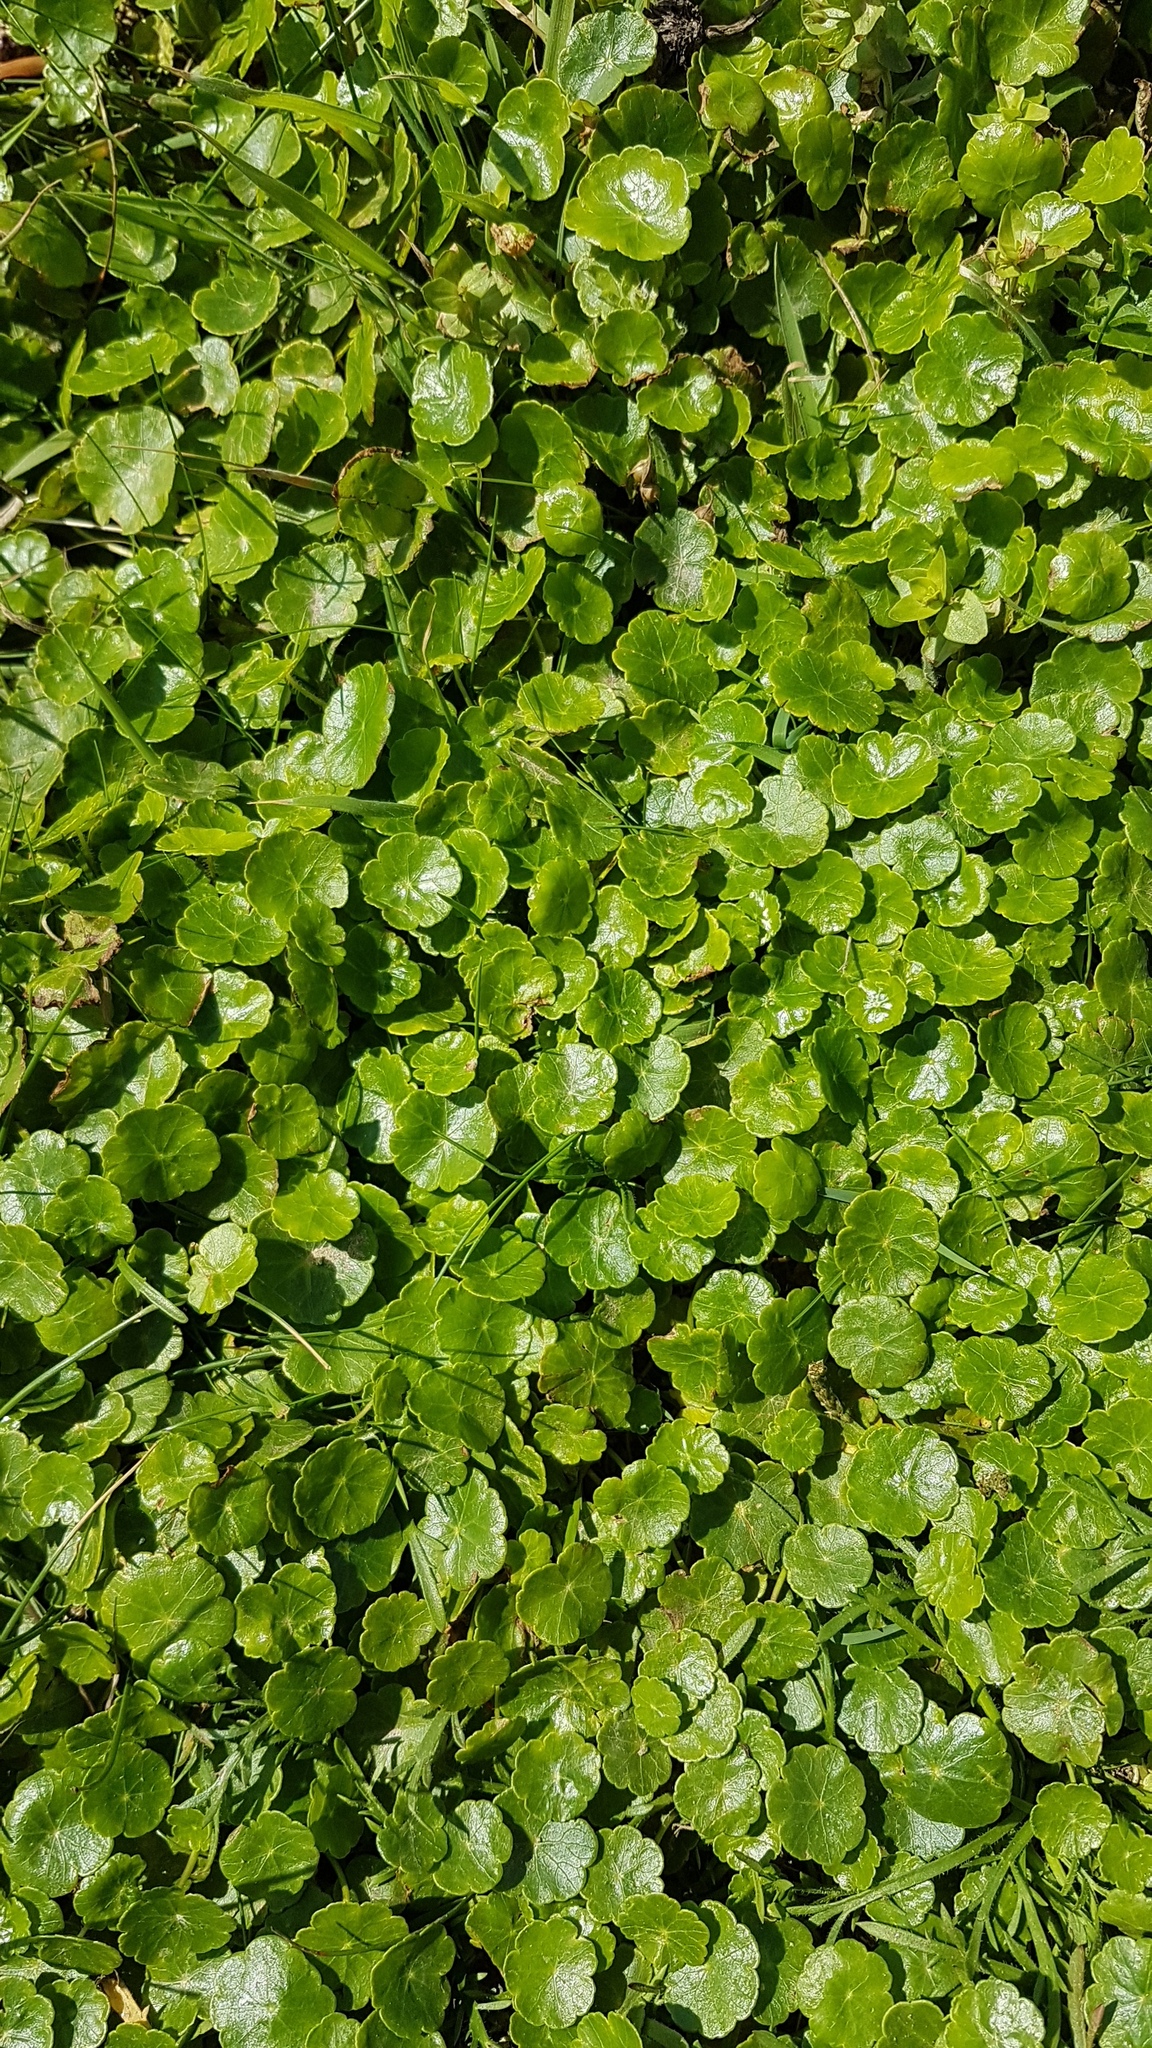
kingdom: Plantae
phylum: Tracheophyta
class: Magnoliopsida
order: Apiales
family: Araliaceae
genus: Hydrocotyle
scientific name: Hydrocotyle vulgaris
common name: Marsh pennywort
